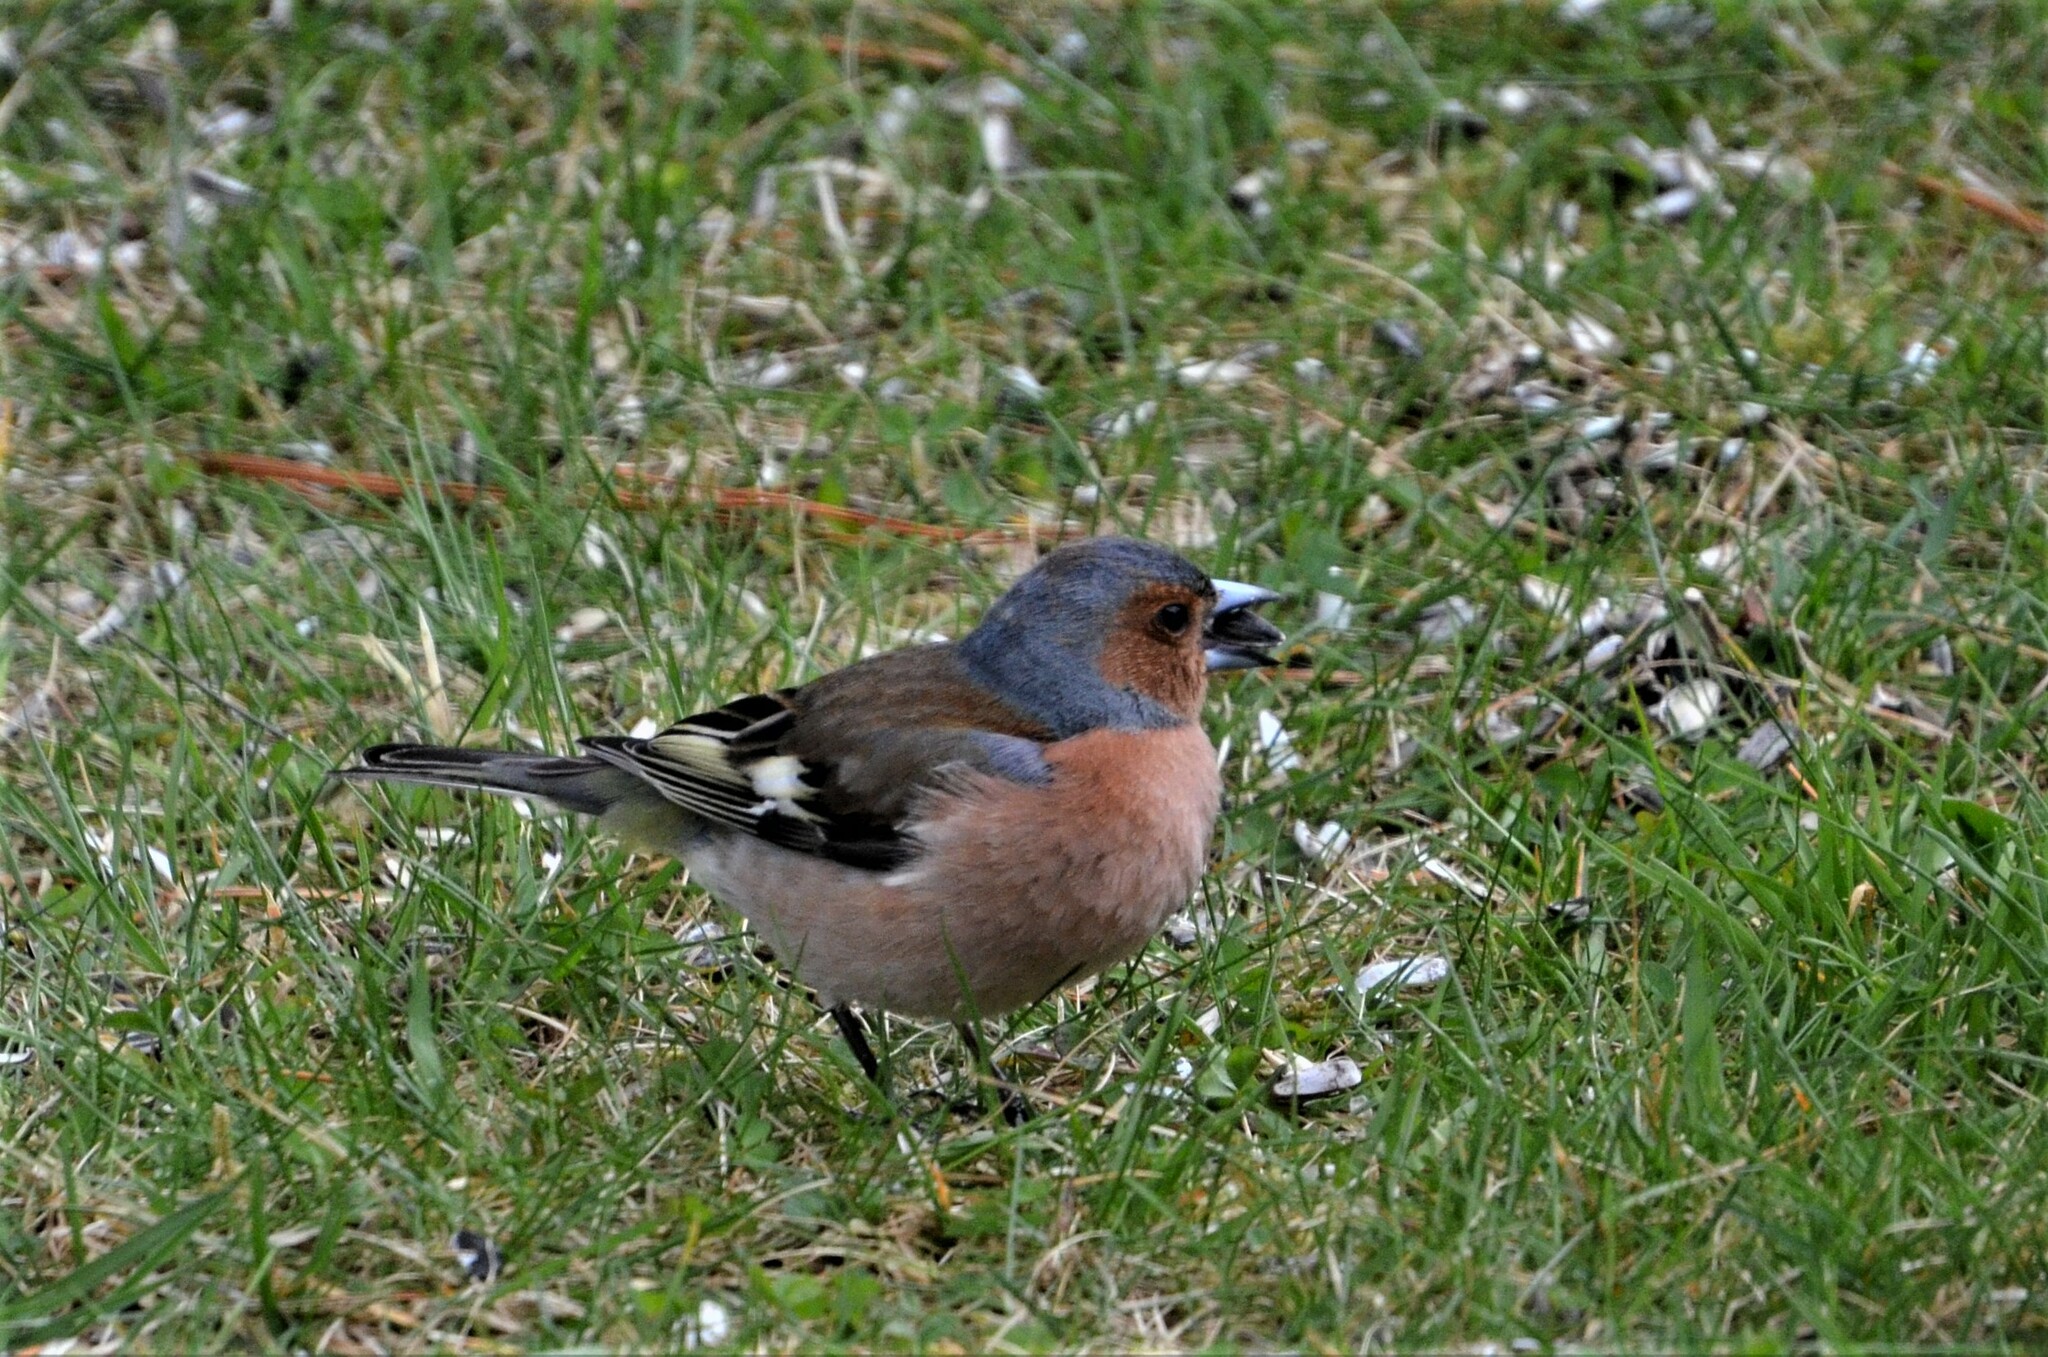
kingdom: Animalia
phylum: Chordata
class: Aves
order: Passeriformes
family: Fringillidae
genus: Fringilla
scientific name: Fringilla coelebs
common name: Common chaffinch
